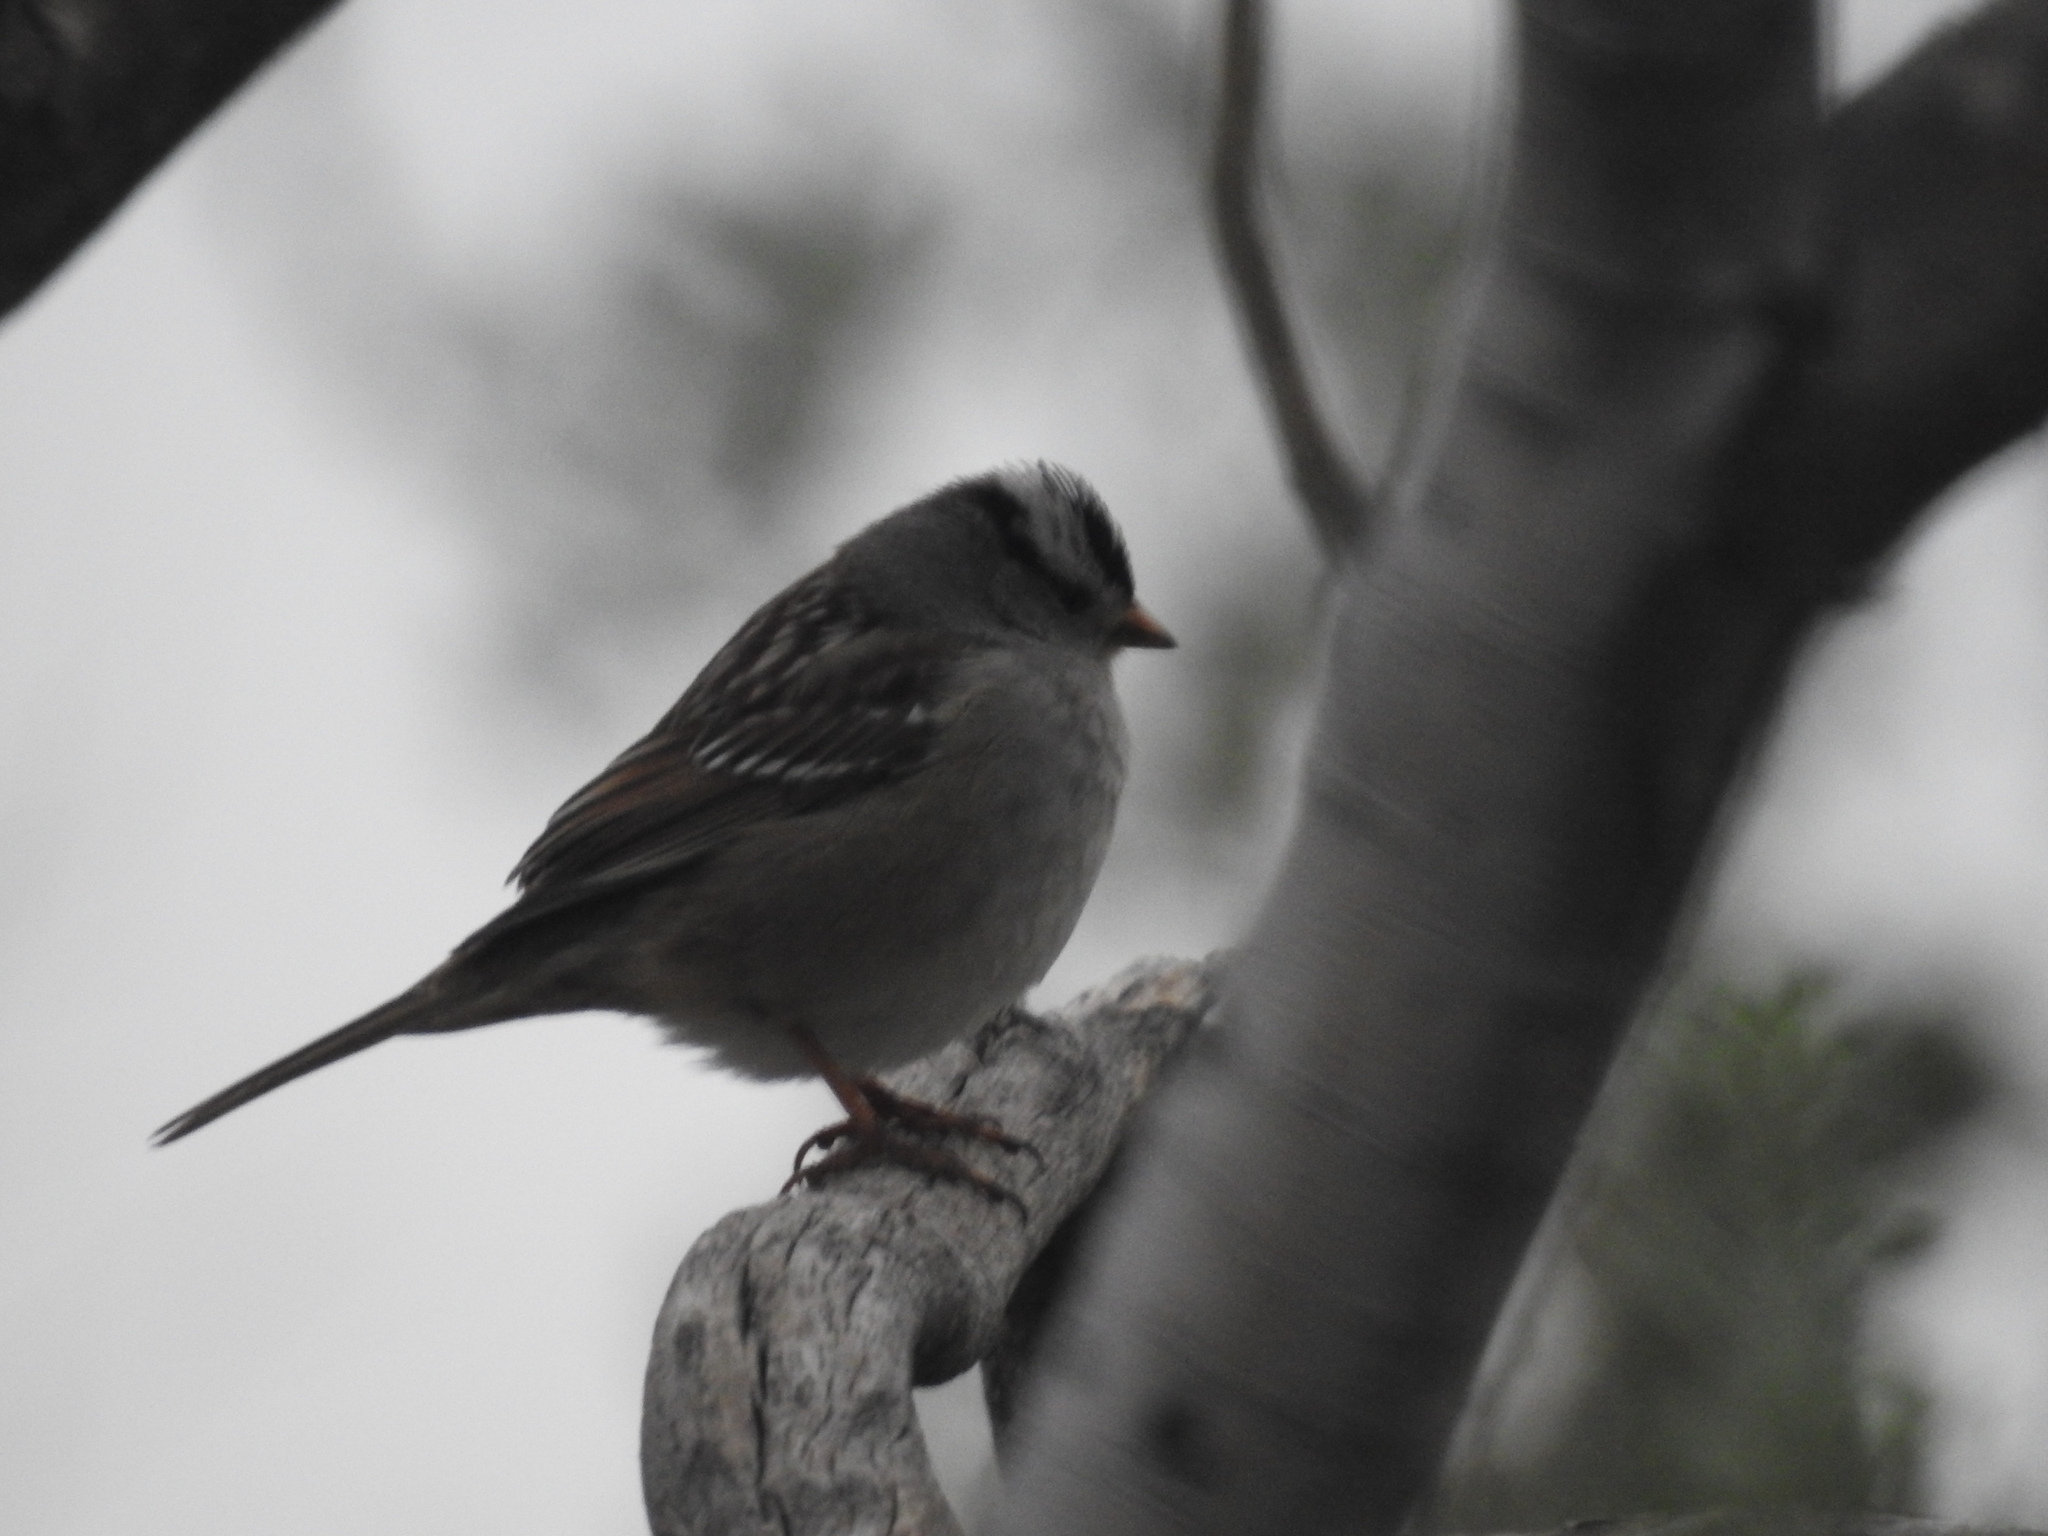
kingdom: Animalia
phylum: Chordata
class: Aves
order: Passeriformes
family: Passerellidae
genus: Zonotrichia
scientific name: Zonotrichia leucophrys
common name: White-crowned sparrow
